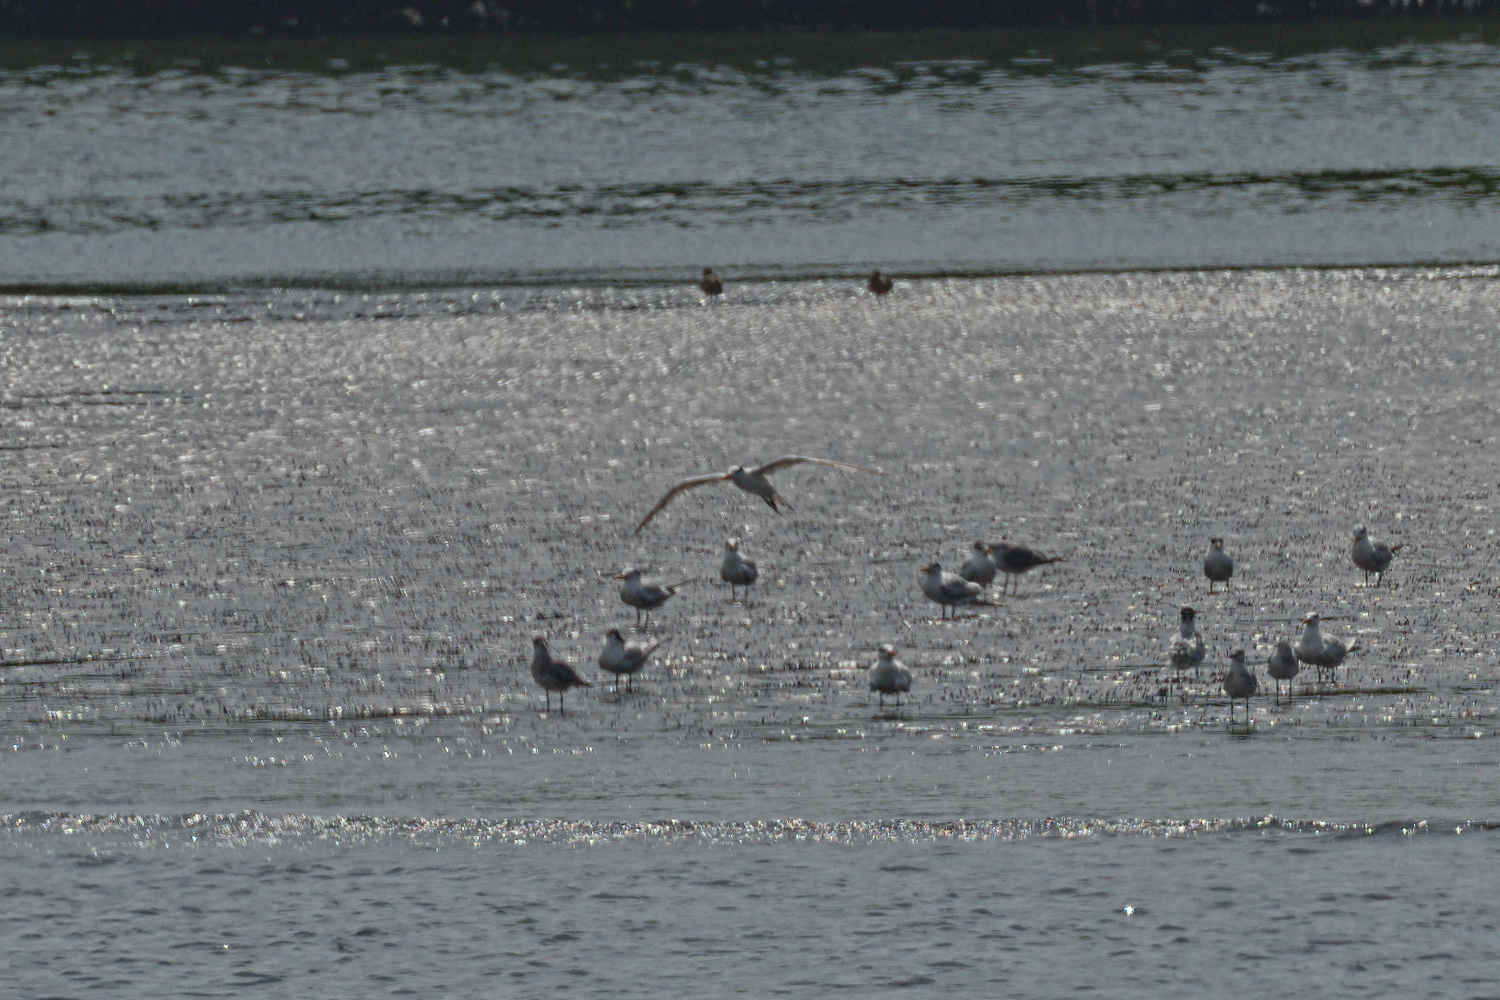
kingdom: Animalia
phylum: Chordata
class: Aves
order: Charadriiformes
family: Laridae
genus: Thalasseus
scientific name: Thalasseus maximus
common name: Royal tern
